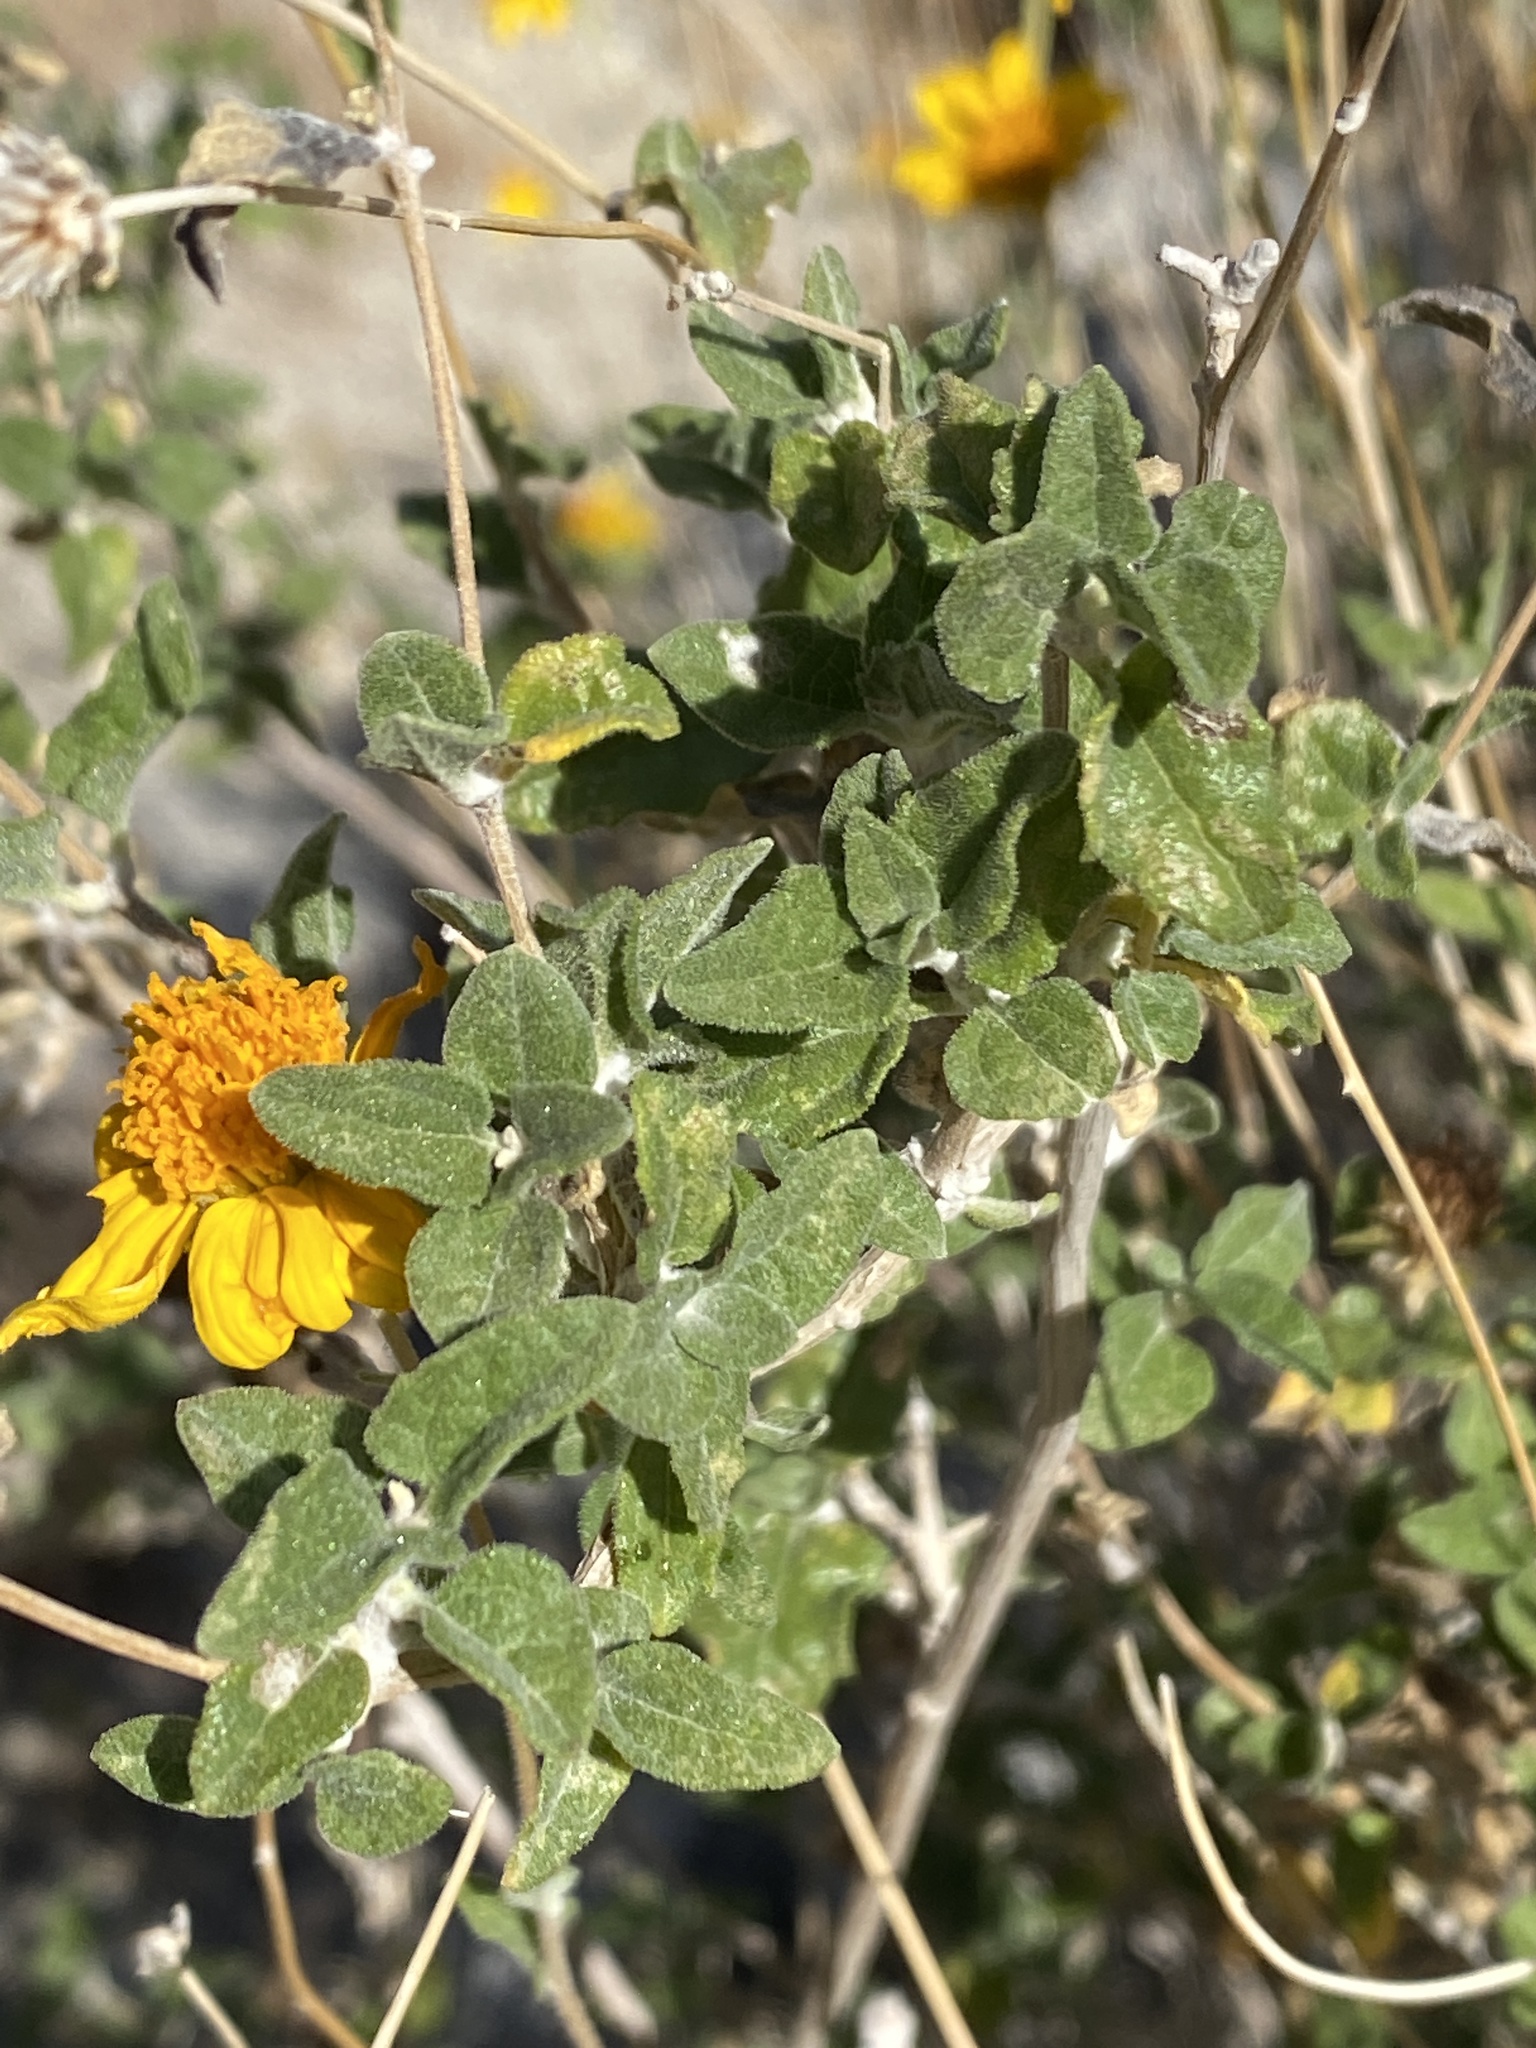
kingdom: Plantae
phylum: Tracheophyta
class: Magnoliopsida
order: Asterales
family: Asteraceae
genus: Bahiopsis
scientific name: Bahiopsis parishii
